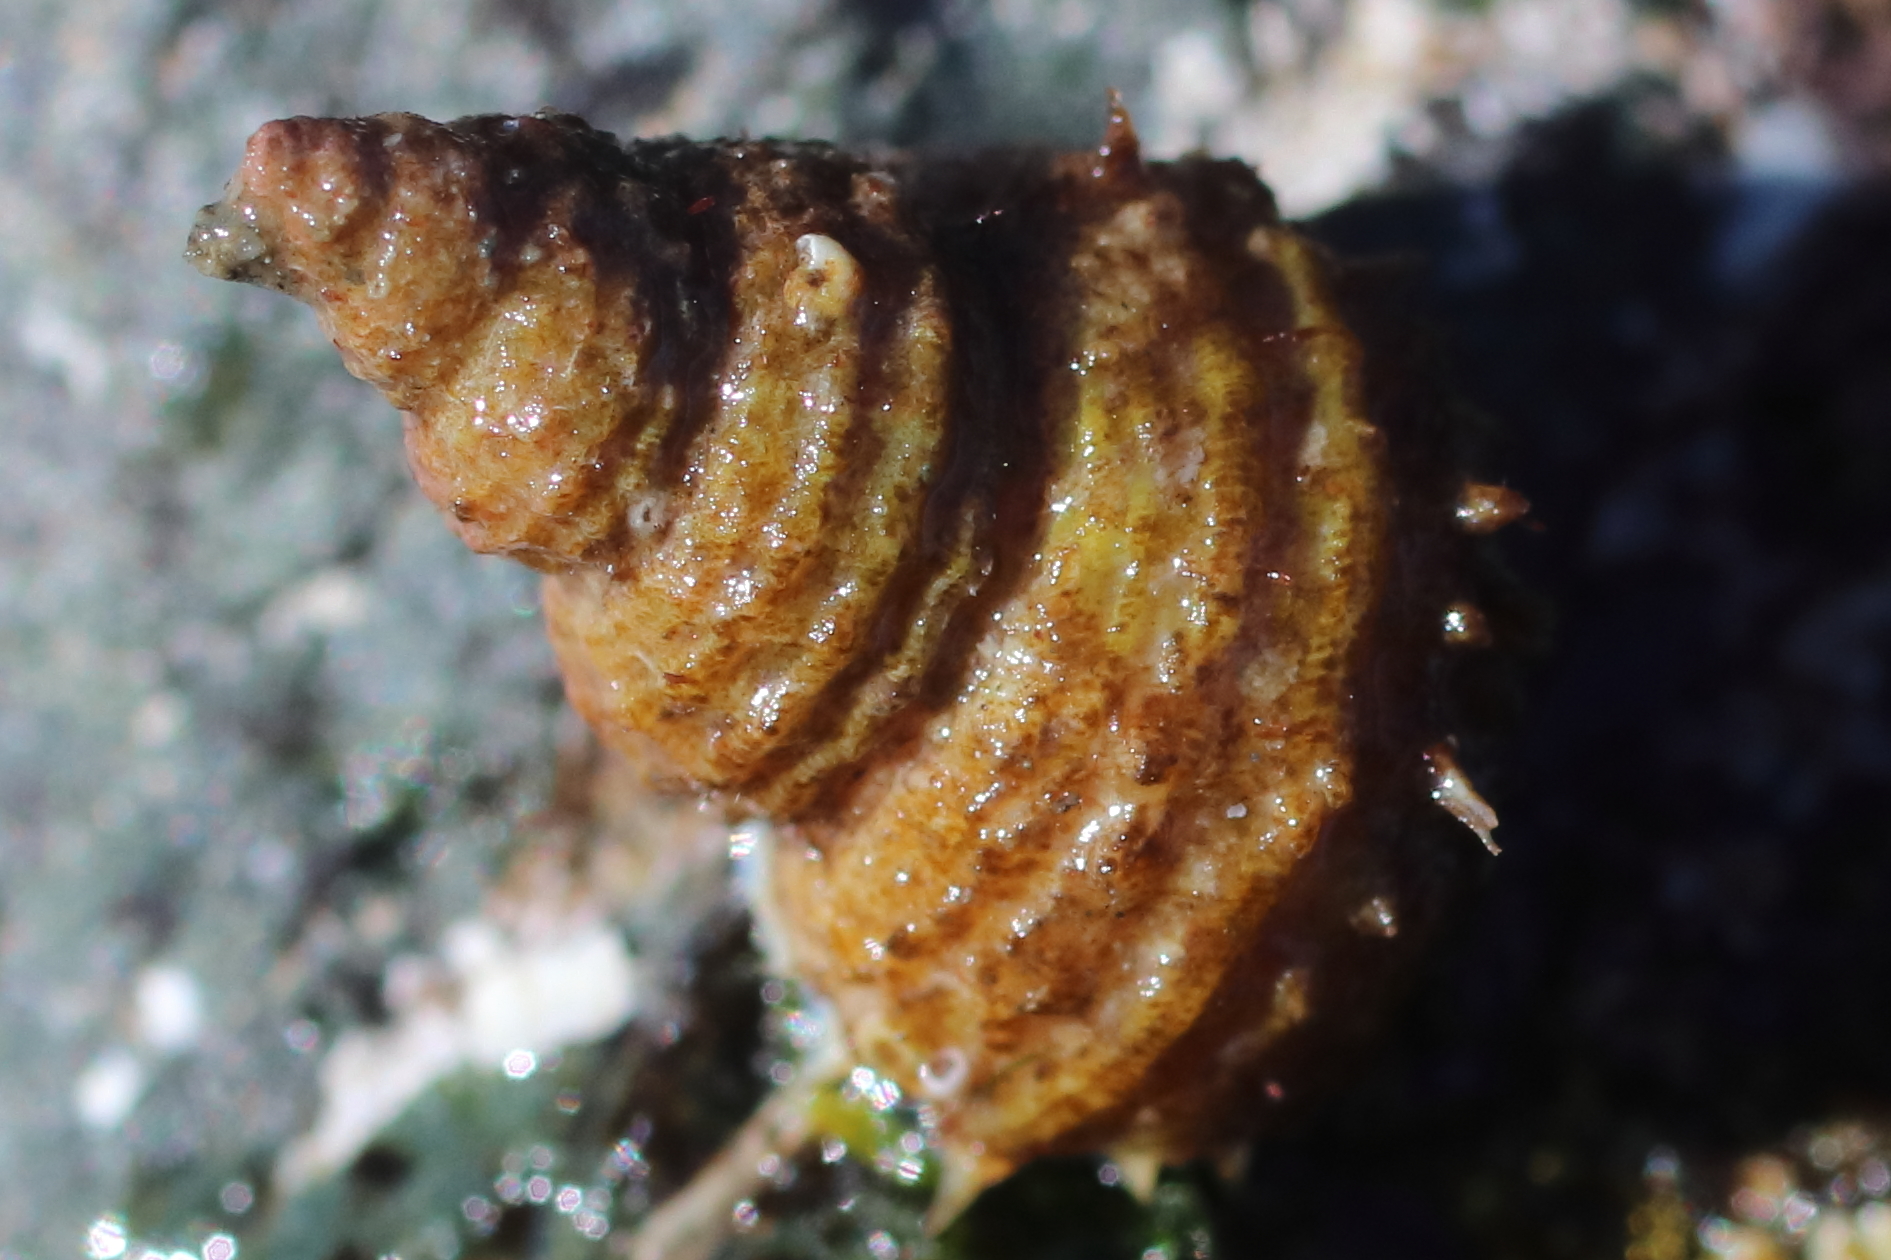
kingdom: Animalia
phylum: Mollusca
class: Gastropoda
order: Littorinimorpha
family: Capulidae
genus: Trichotropis
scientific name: Trichotropis cancellata
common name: Cancellate hairysnail
